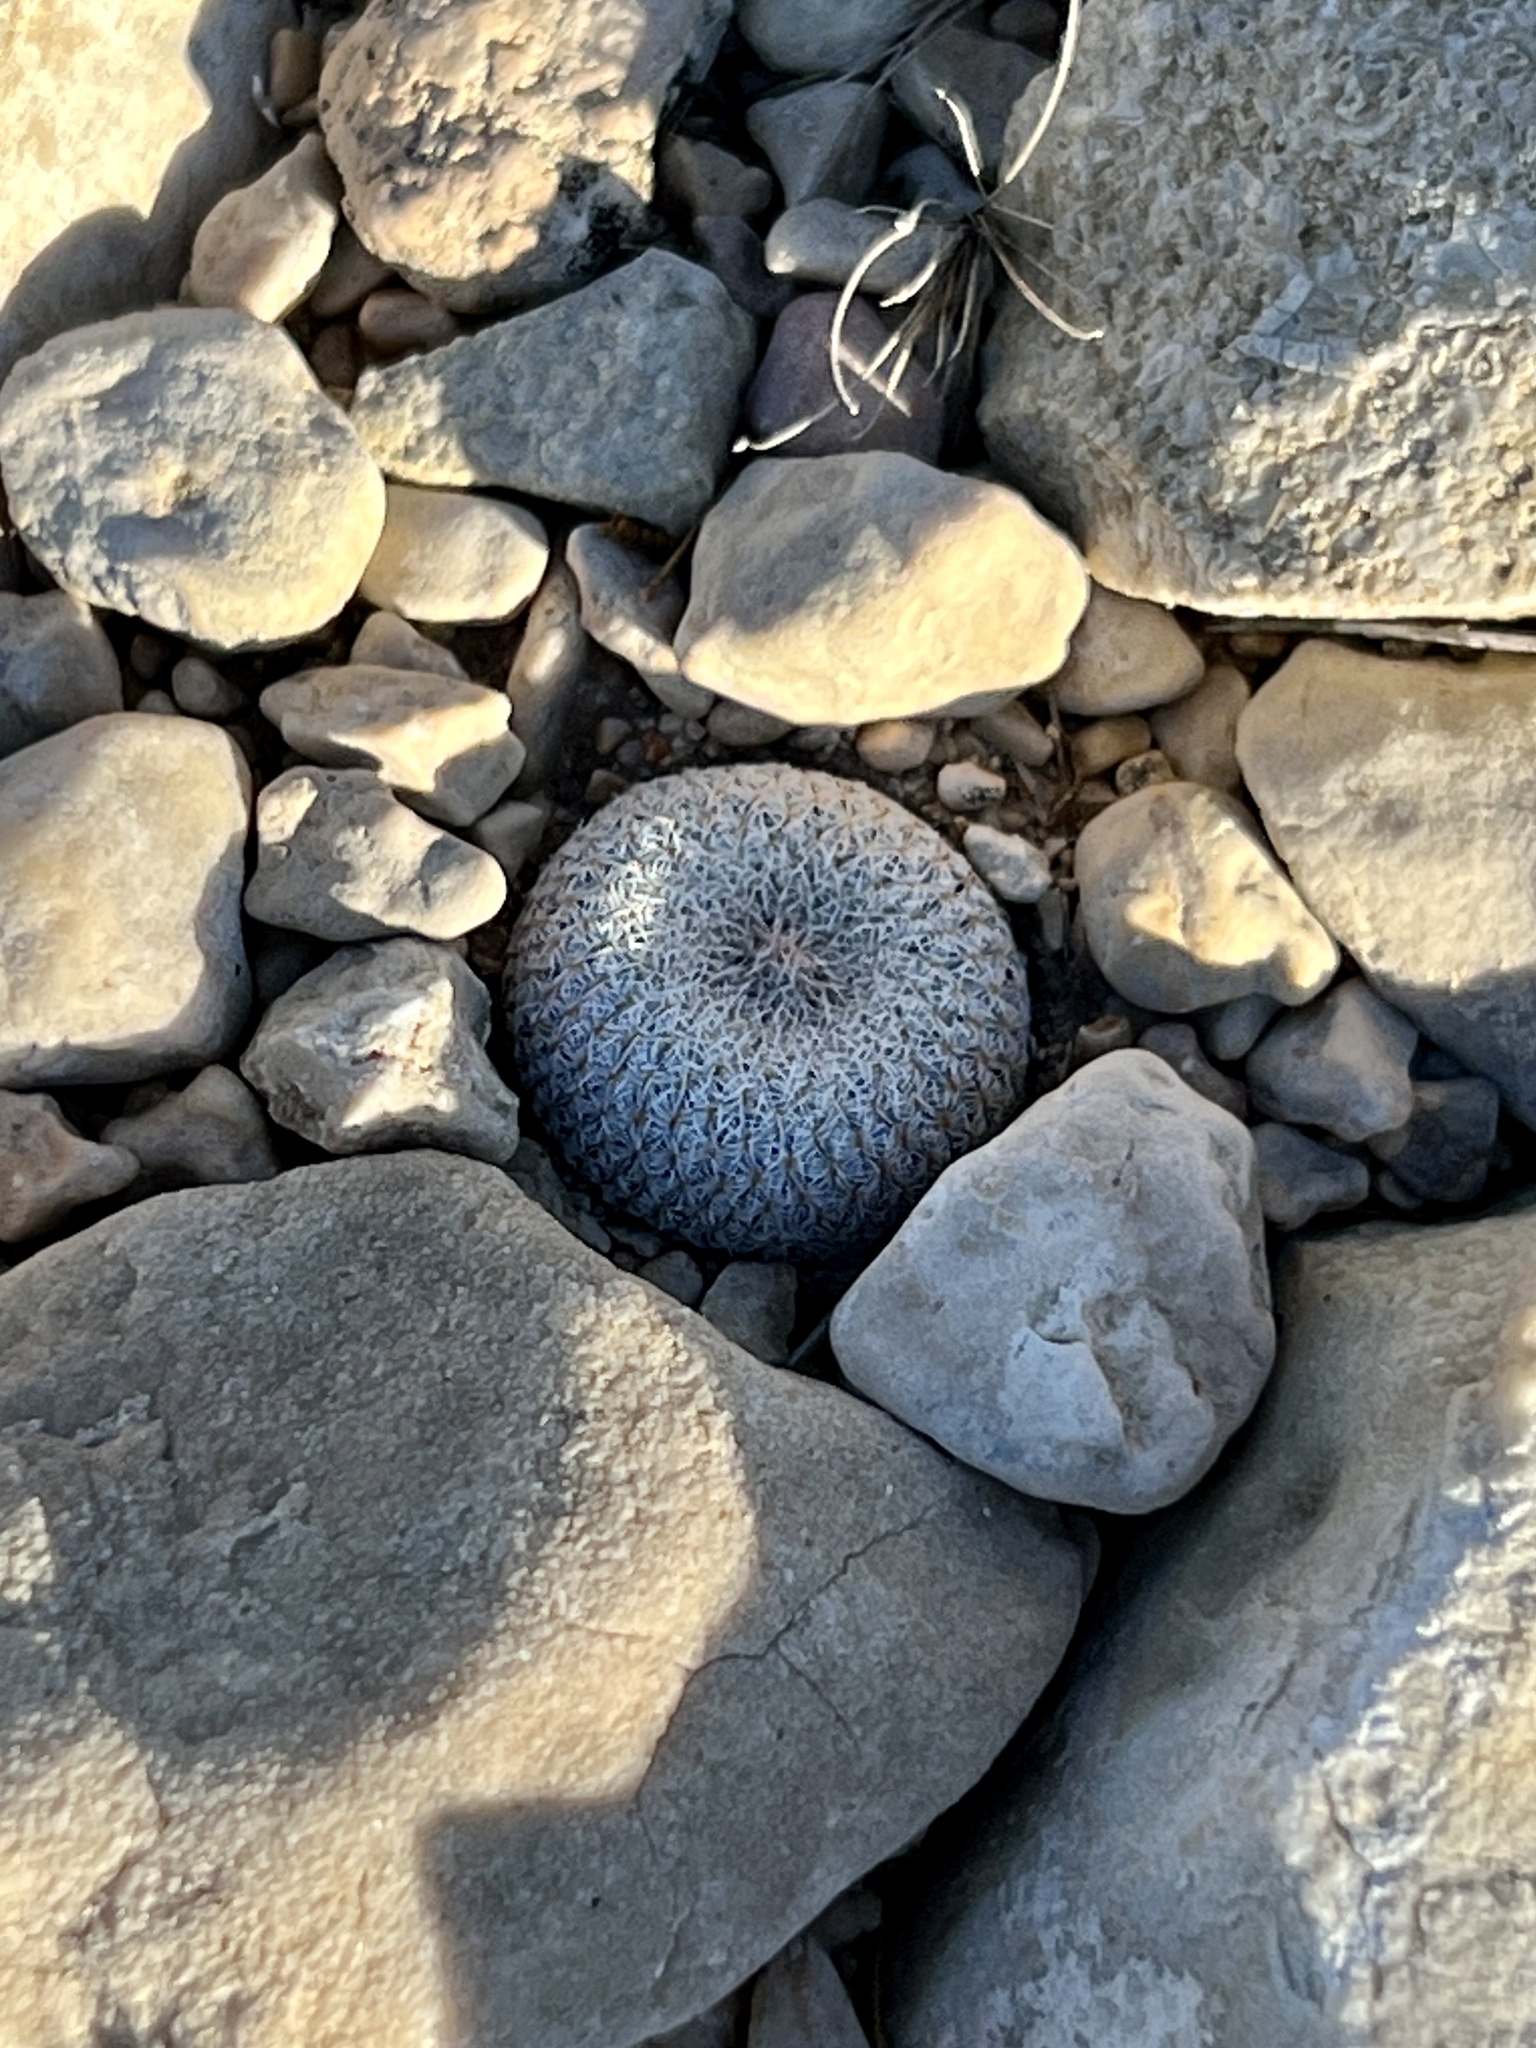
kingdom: Plantae
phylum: Tracheophyta
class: Magnoliopsida
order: Caryophyllales
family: Cactaceae
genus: Epithelantha
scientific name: Epithelantha micromeris
